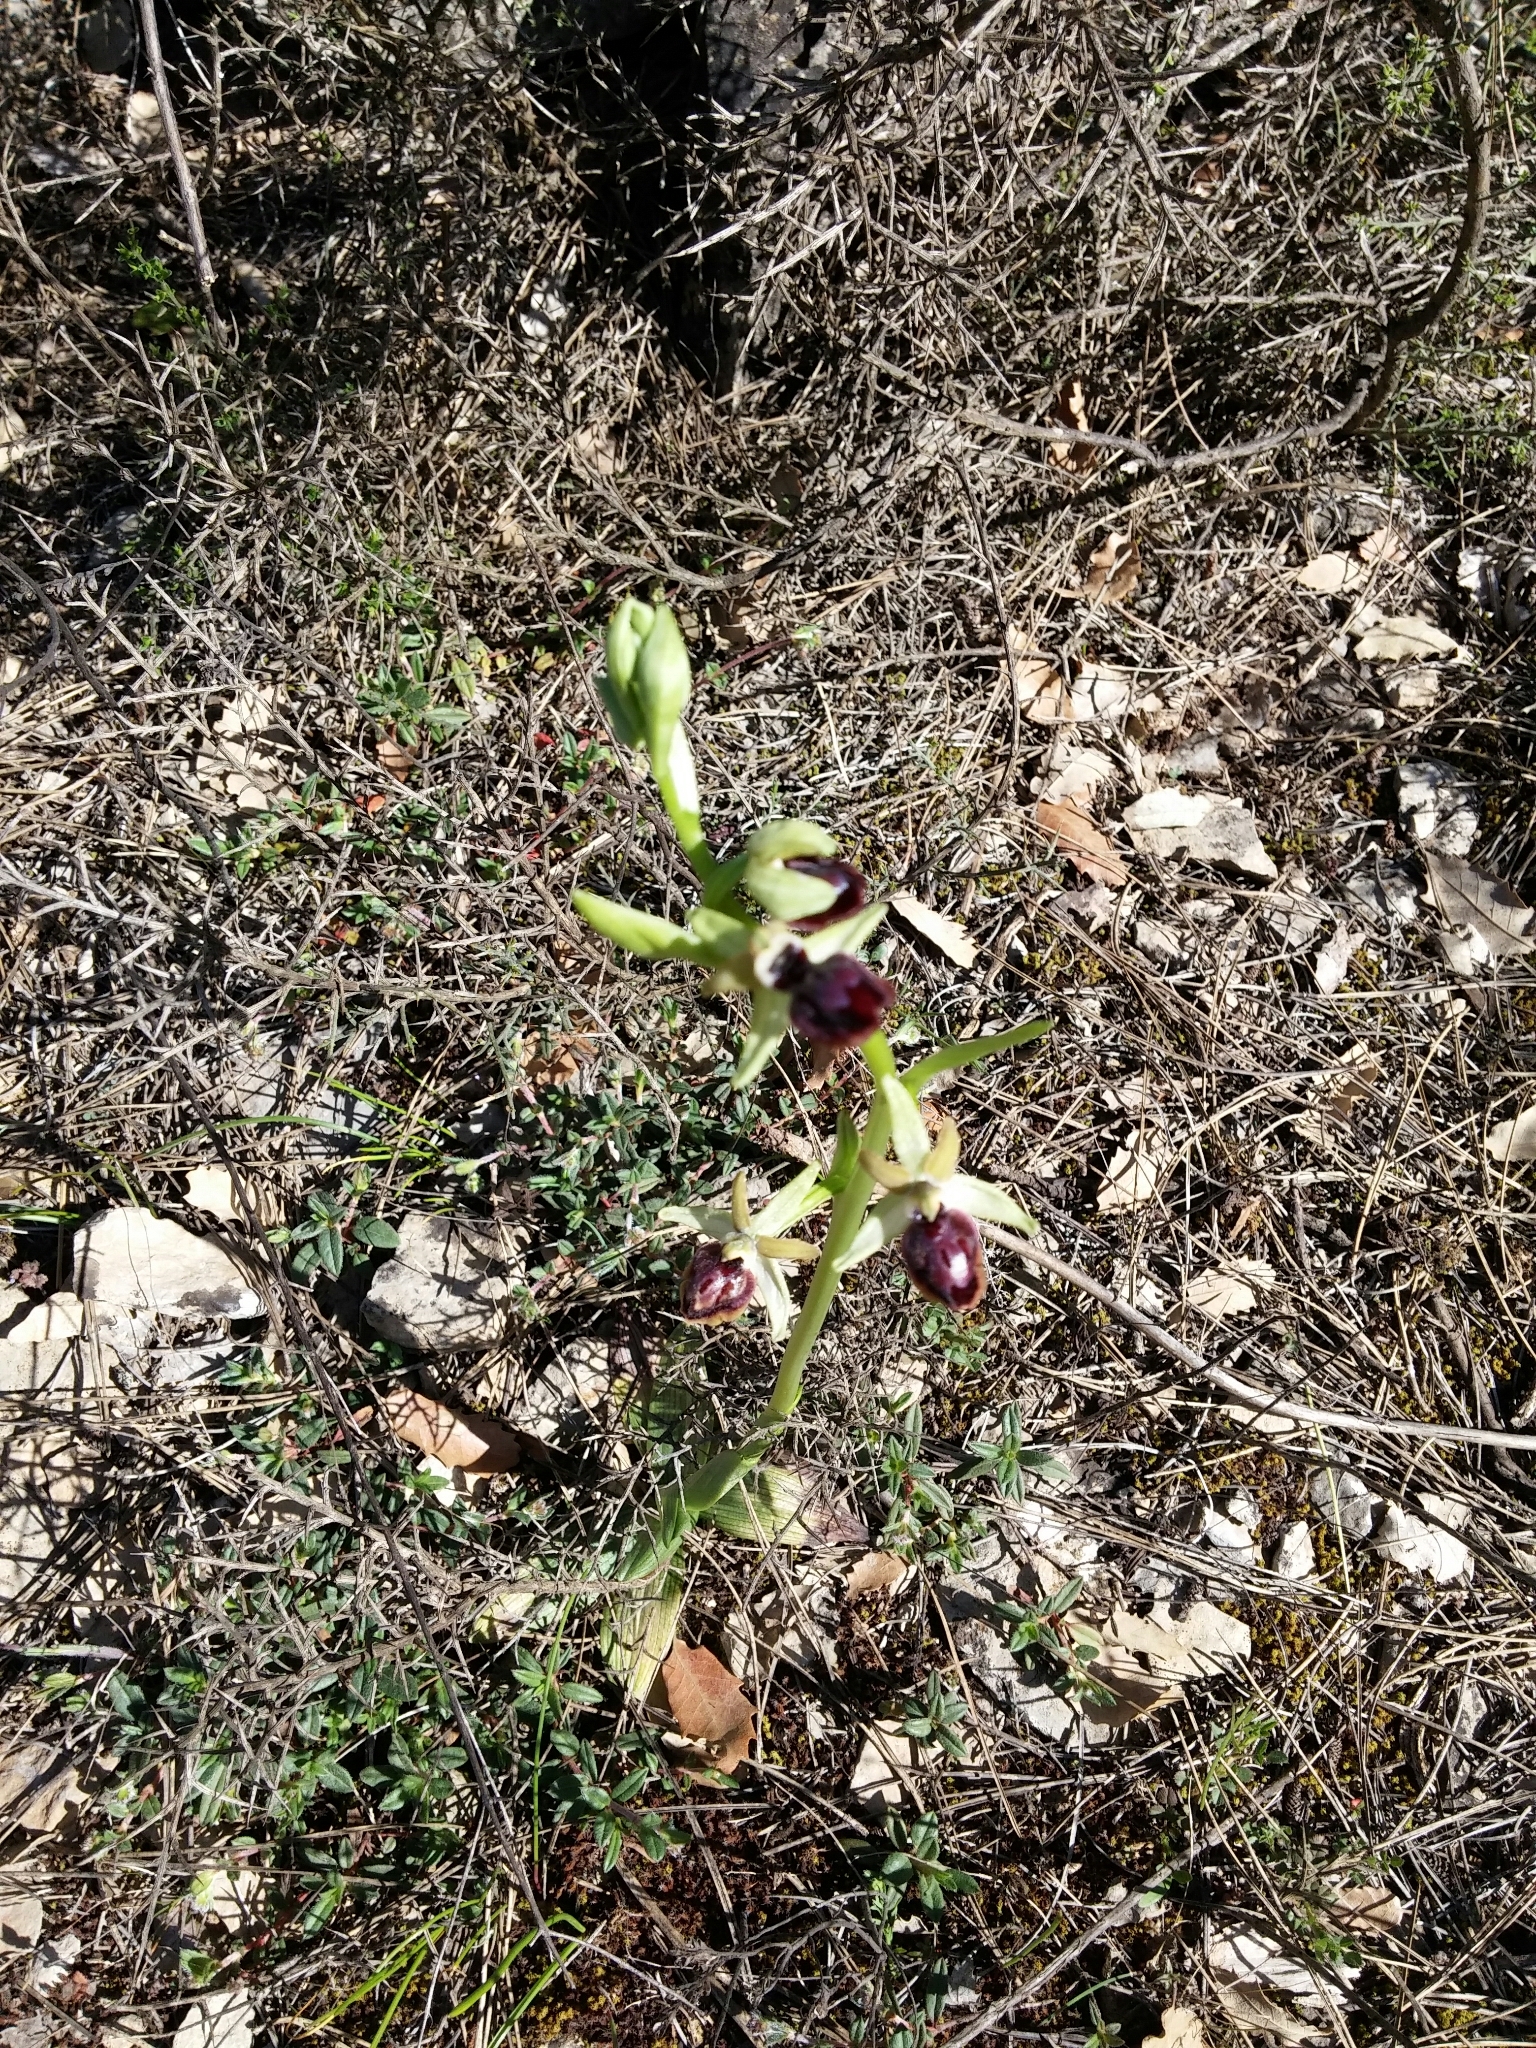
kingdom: Plantae
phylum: Tracheophyta
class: Liliopsida
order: Asparagales
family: Orchidaceae
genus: Ophrys
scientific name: Ophrys sphegodes
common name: Early spider-orchid
